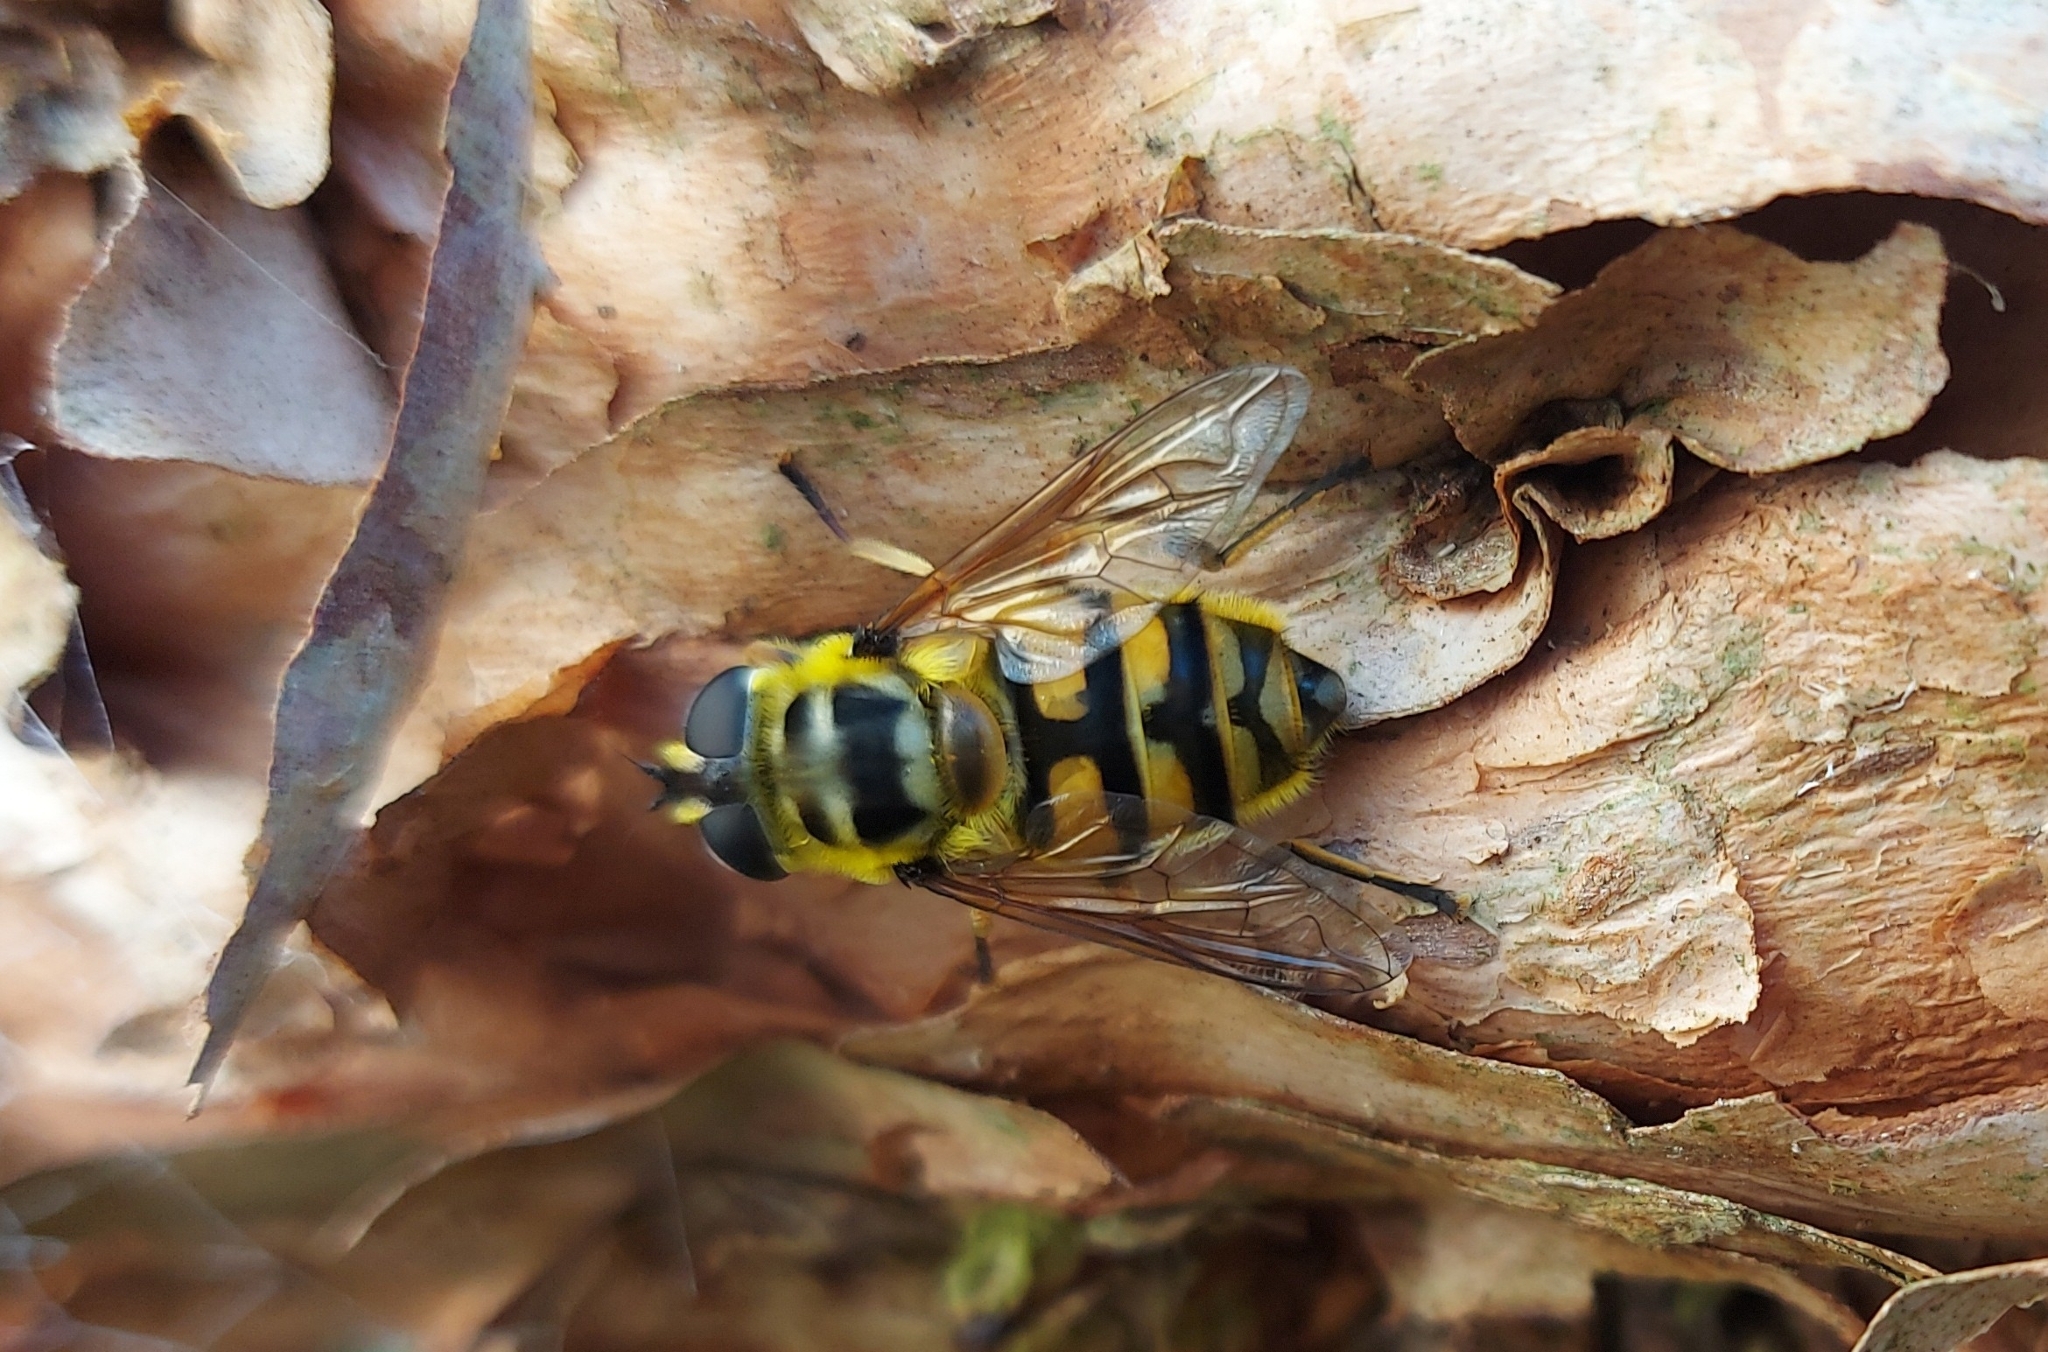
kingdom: Animalia
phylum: Arthropoda
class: Insecta
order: Diptera
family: Syrphidae
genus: Myathropa
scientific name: Myathropa florea
